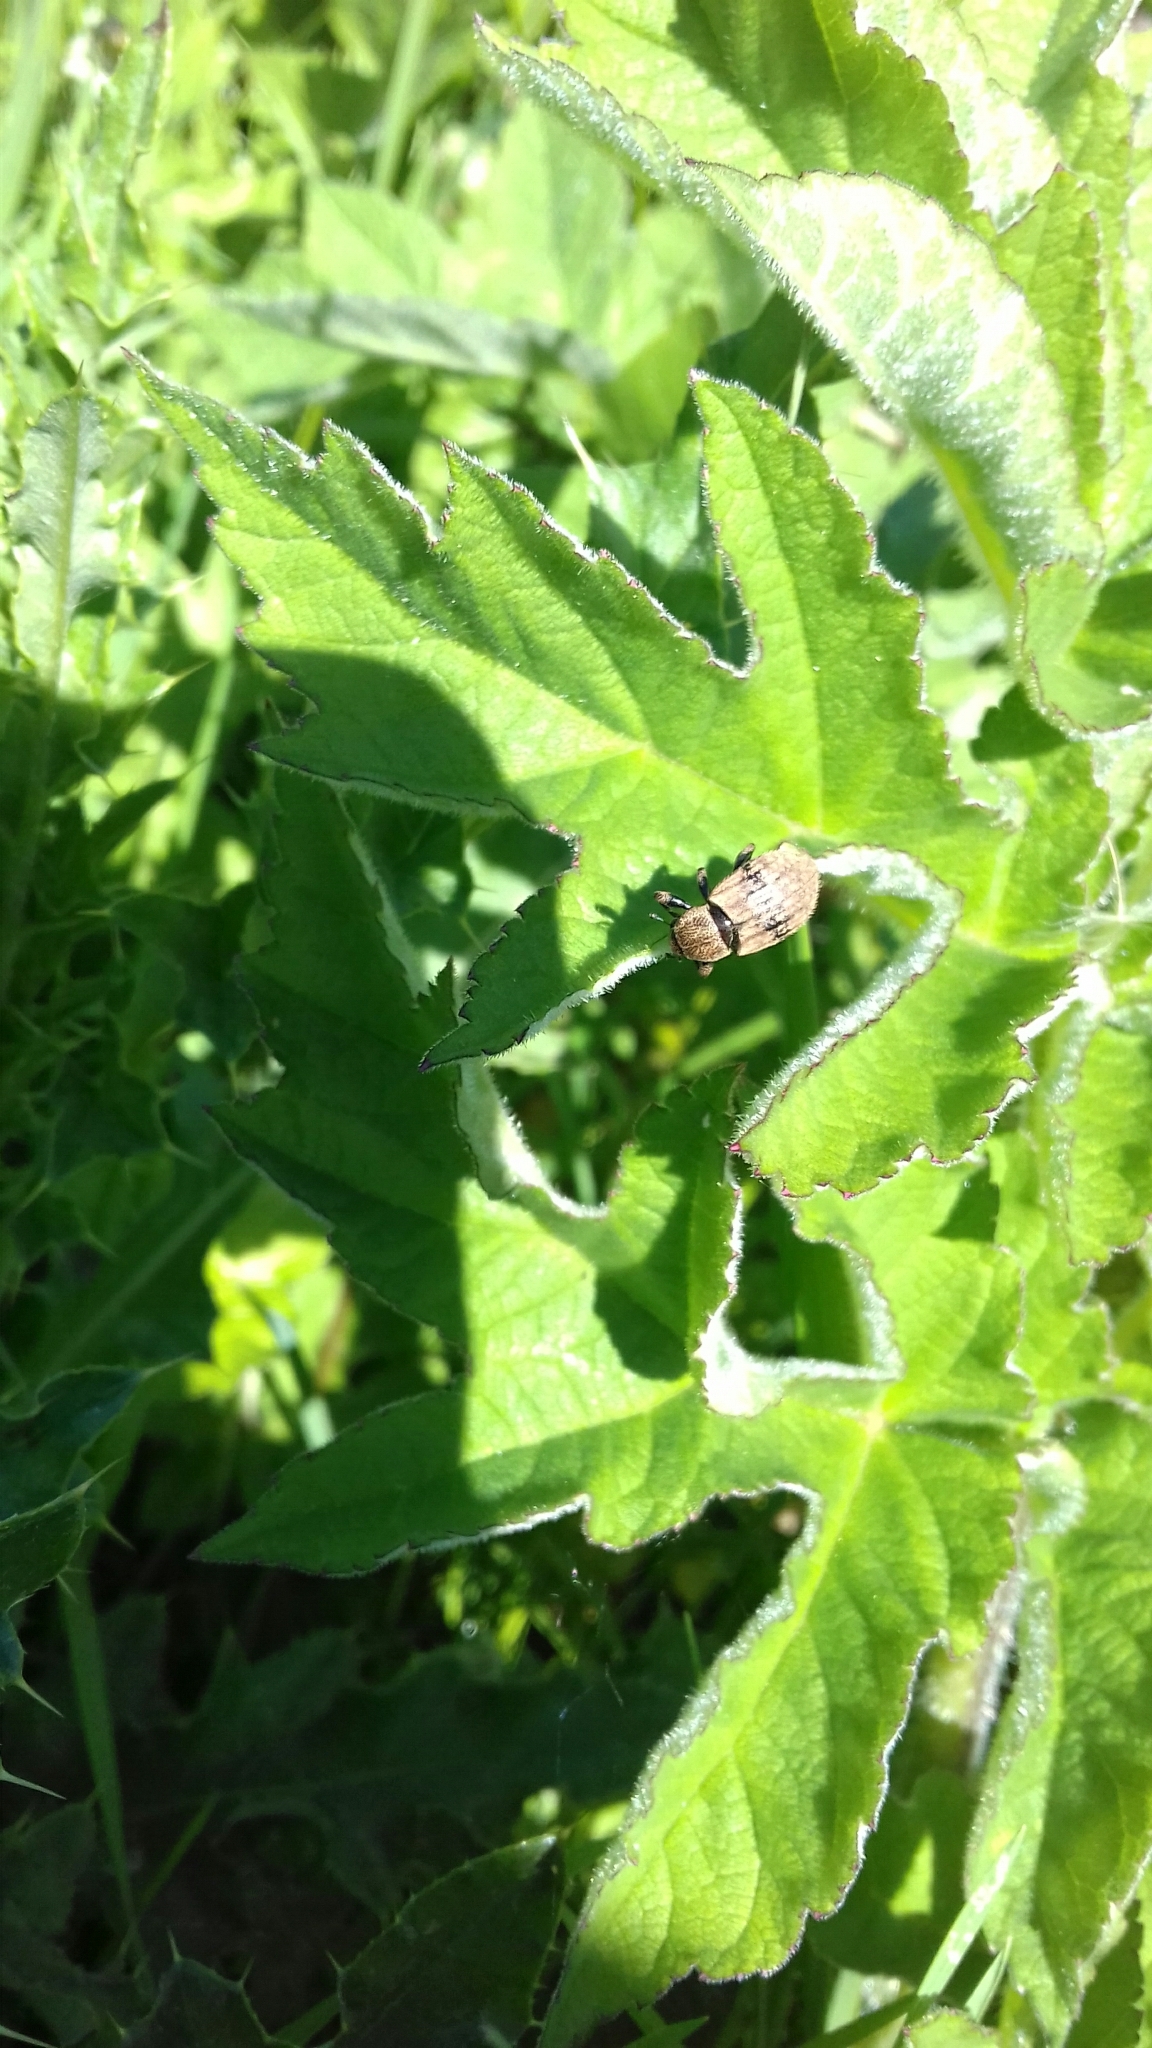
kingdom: Animalia
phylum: Arthropoda
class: Insecta
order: Coleoptera
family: Curculionidae
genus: Barynotus
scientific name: Barynotus obscurus
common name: Weevil
